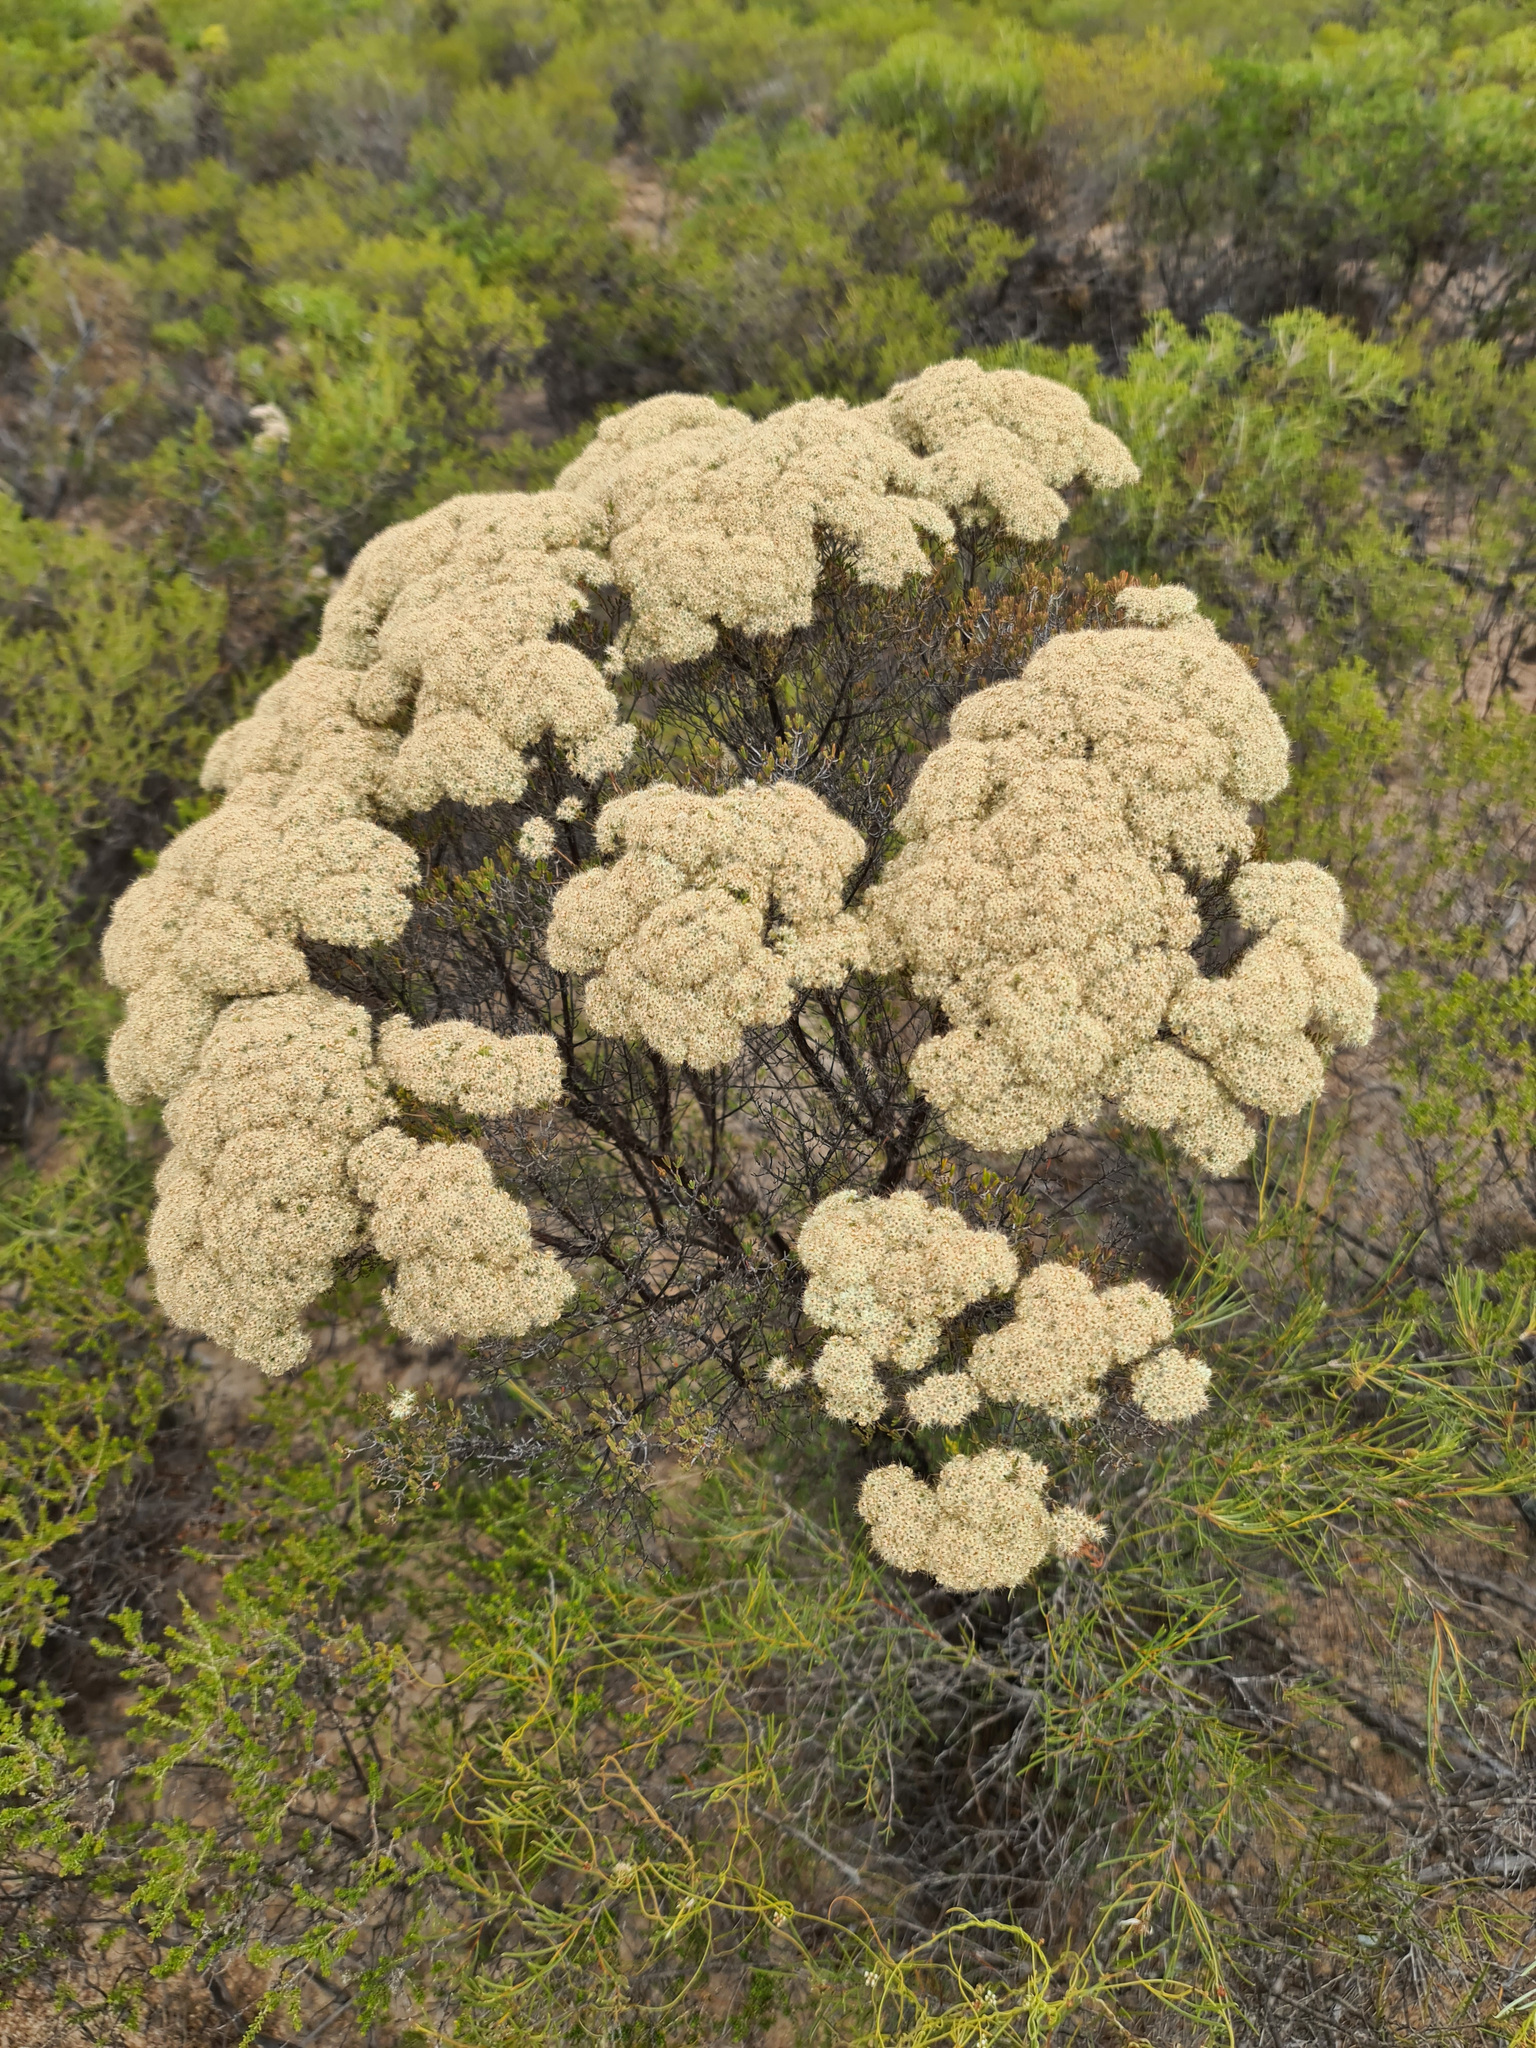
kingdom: Plantae
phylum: Tracheophyta
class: Magnoliopsida
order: Myrtales
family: Myrtaceae
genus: Verticordia
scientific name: Verticordia polytricha
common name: Northern-cauliflower
